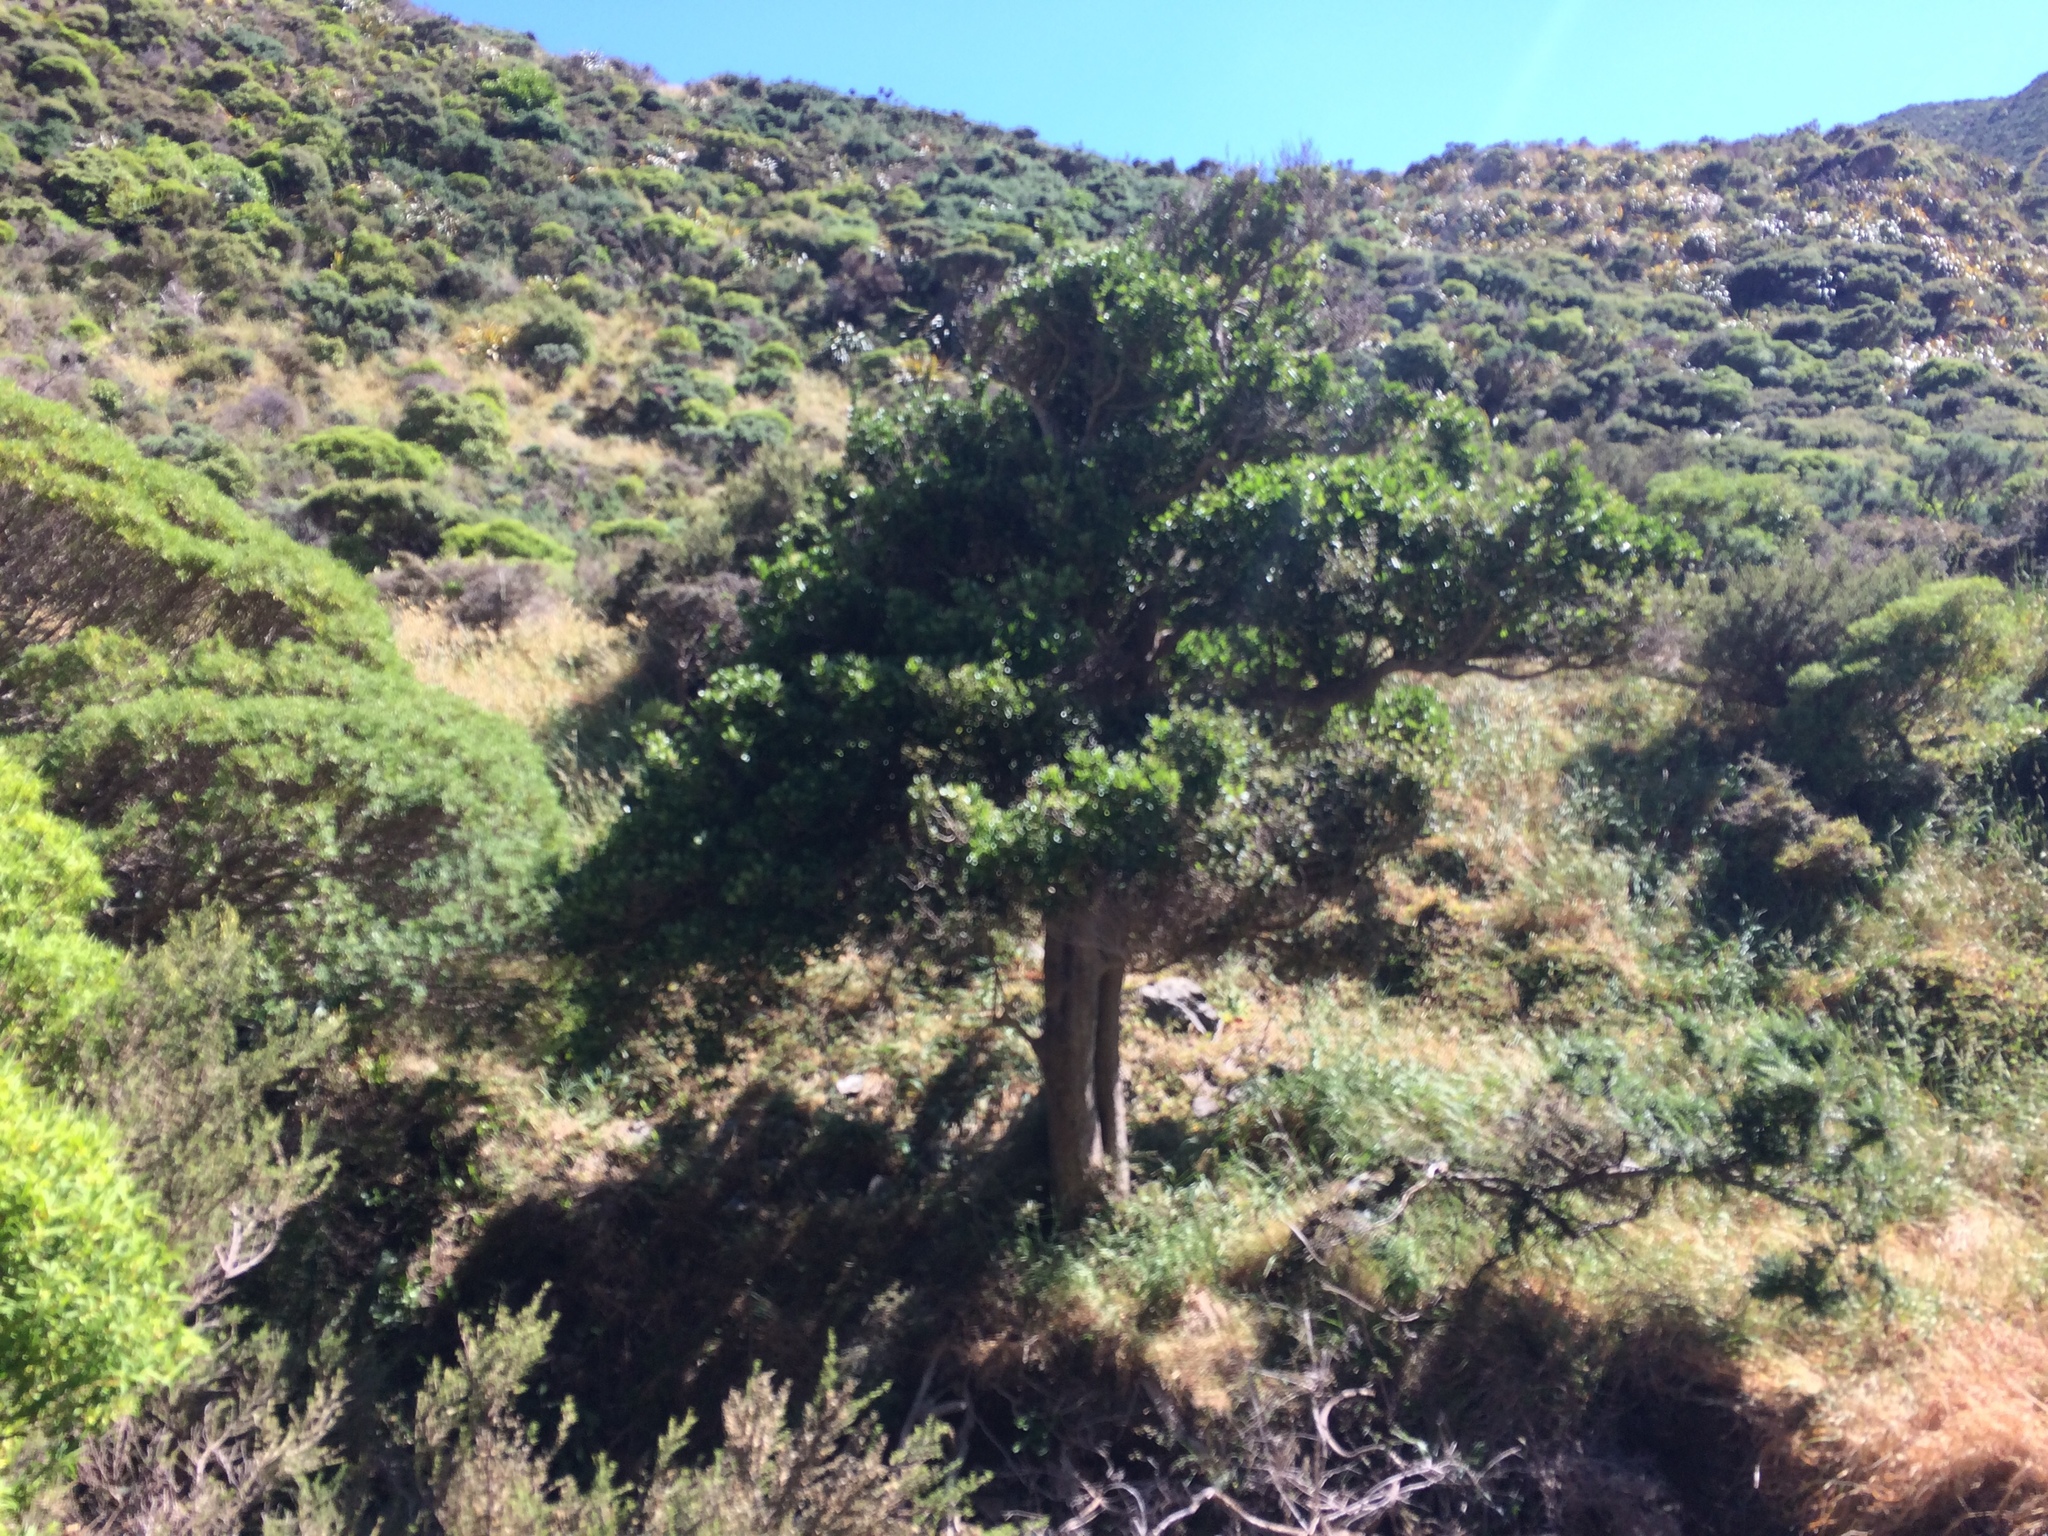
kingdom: Plantae
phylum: Tracheophyta
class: Magnoliopsida
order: Apiales
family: Pennantiaceae
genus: Pennantia
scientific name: Pennantia corymbosa
